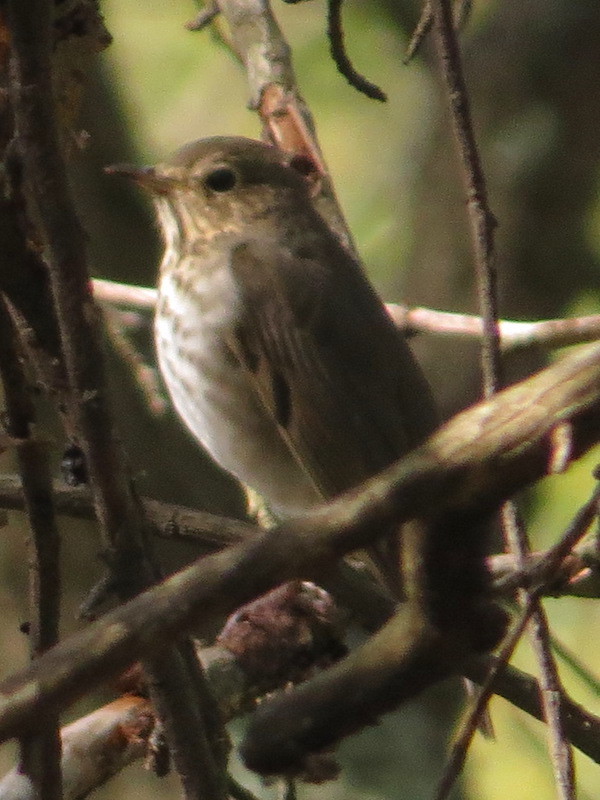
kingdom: Animalia
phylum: Chordata
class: Aves
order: Passeriformes
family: Turdidae
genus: Catharus
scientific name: Catharus ustulatus
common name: Swainson's thrush
